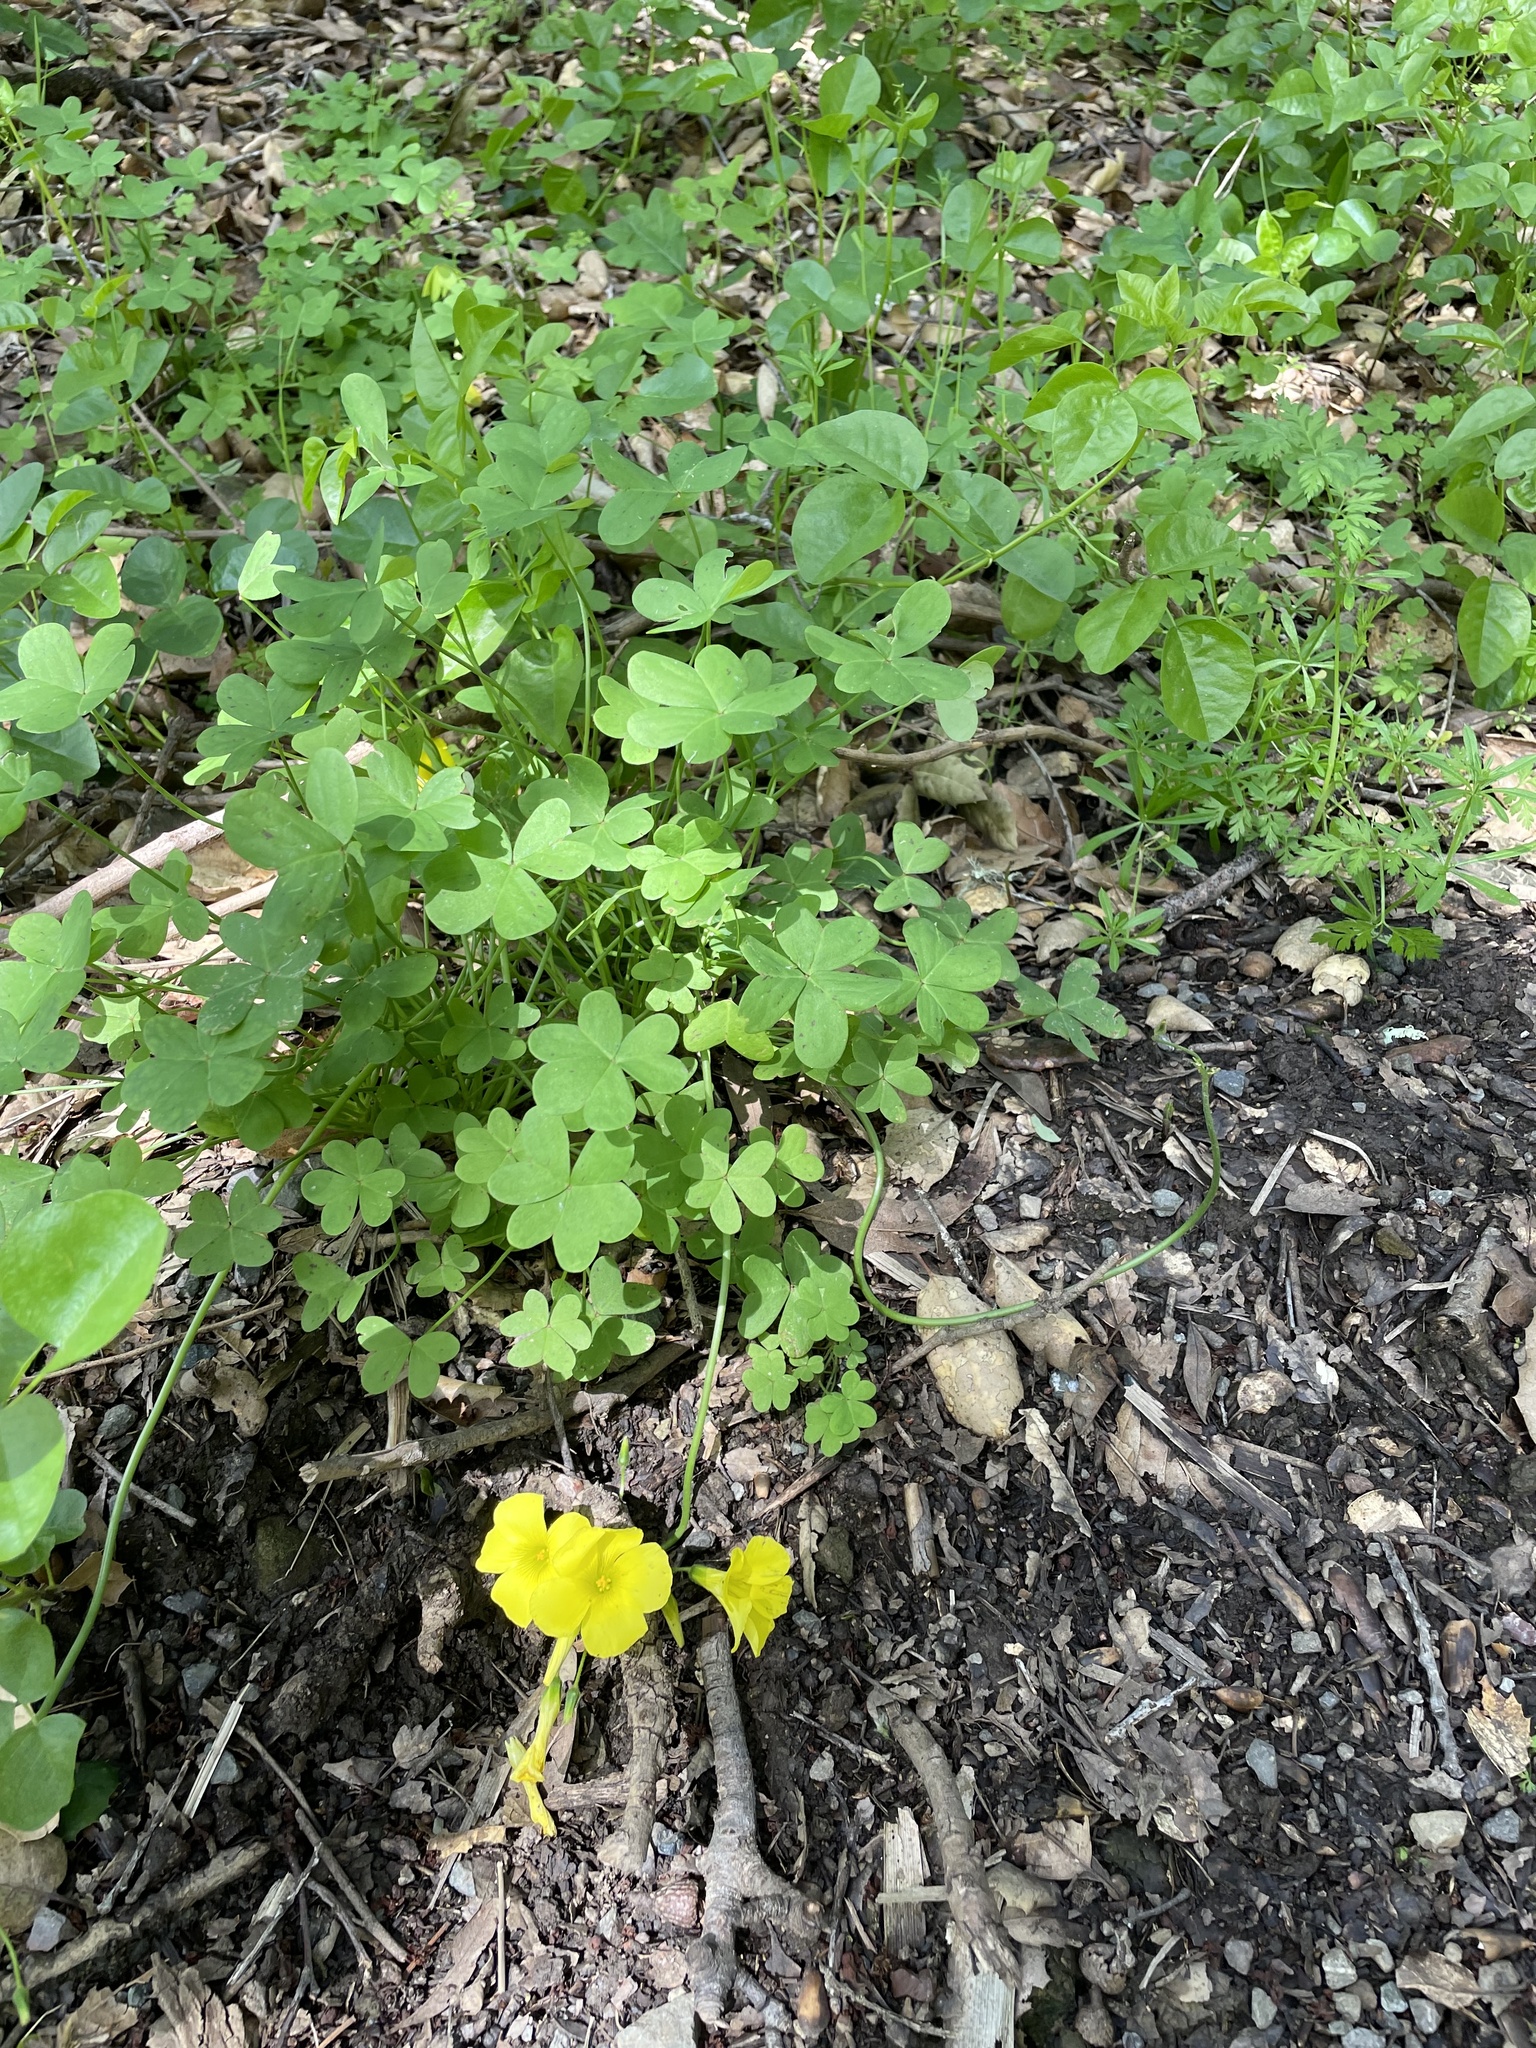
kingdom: Plantae
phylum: Tracheophyta
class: Magnoliopsida
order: Oxalidales
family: Oxalidaceae
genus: Oxalis
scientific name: Oxalis pes-caprae
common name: Bermuda-buttercup
